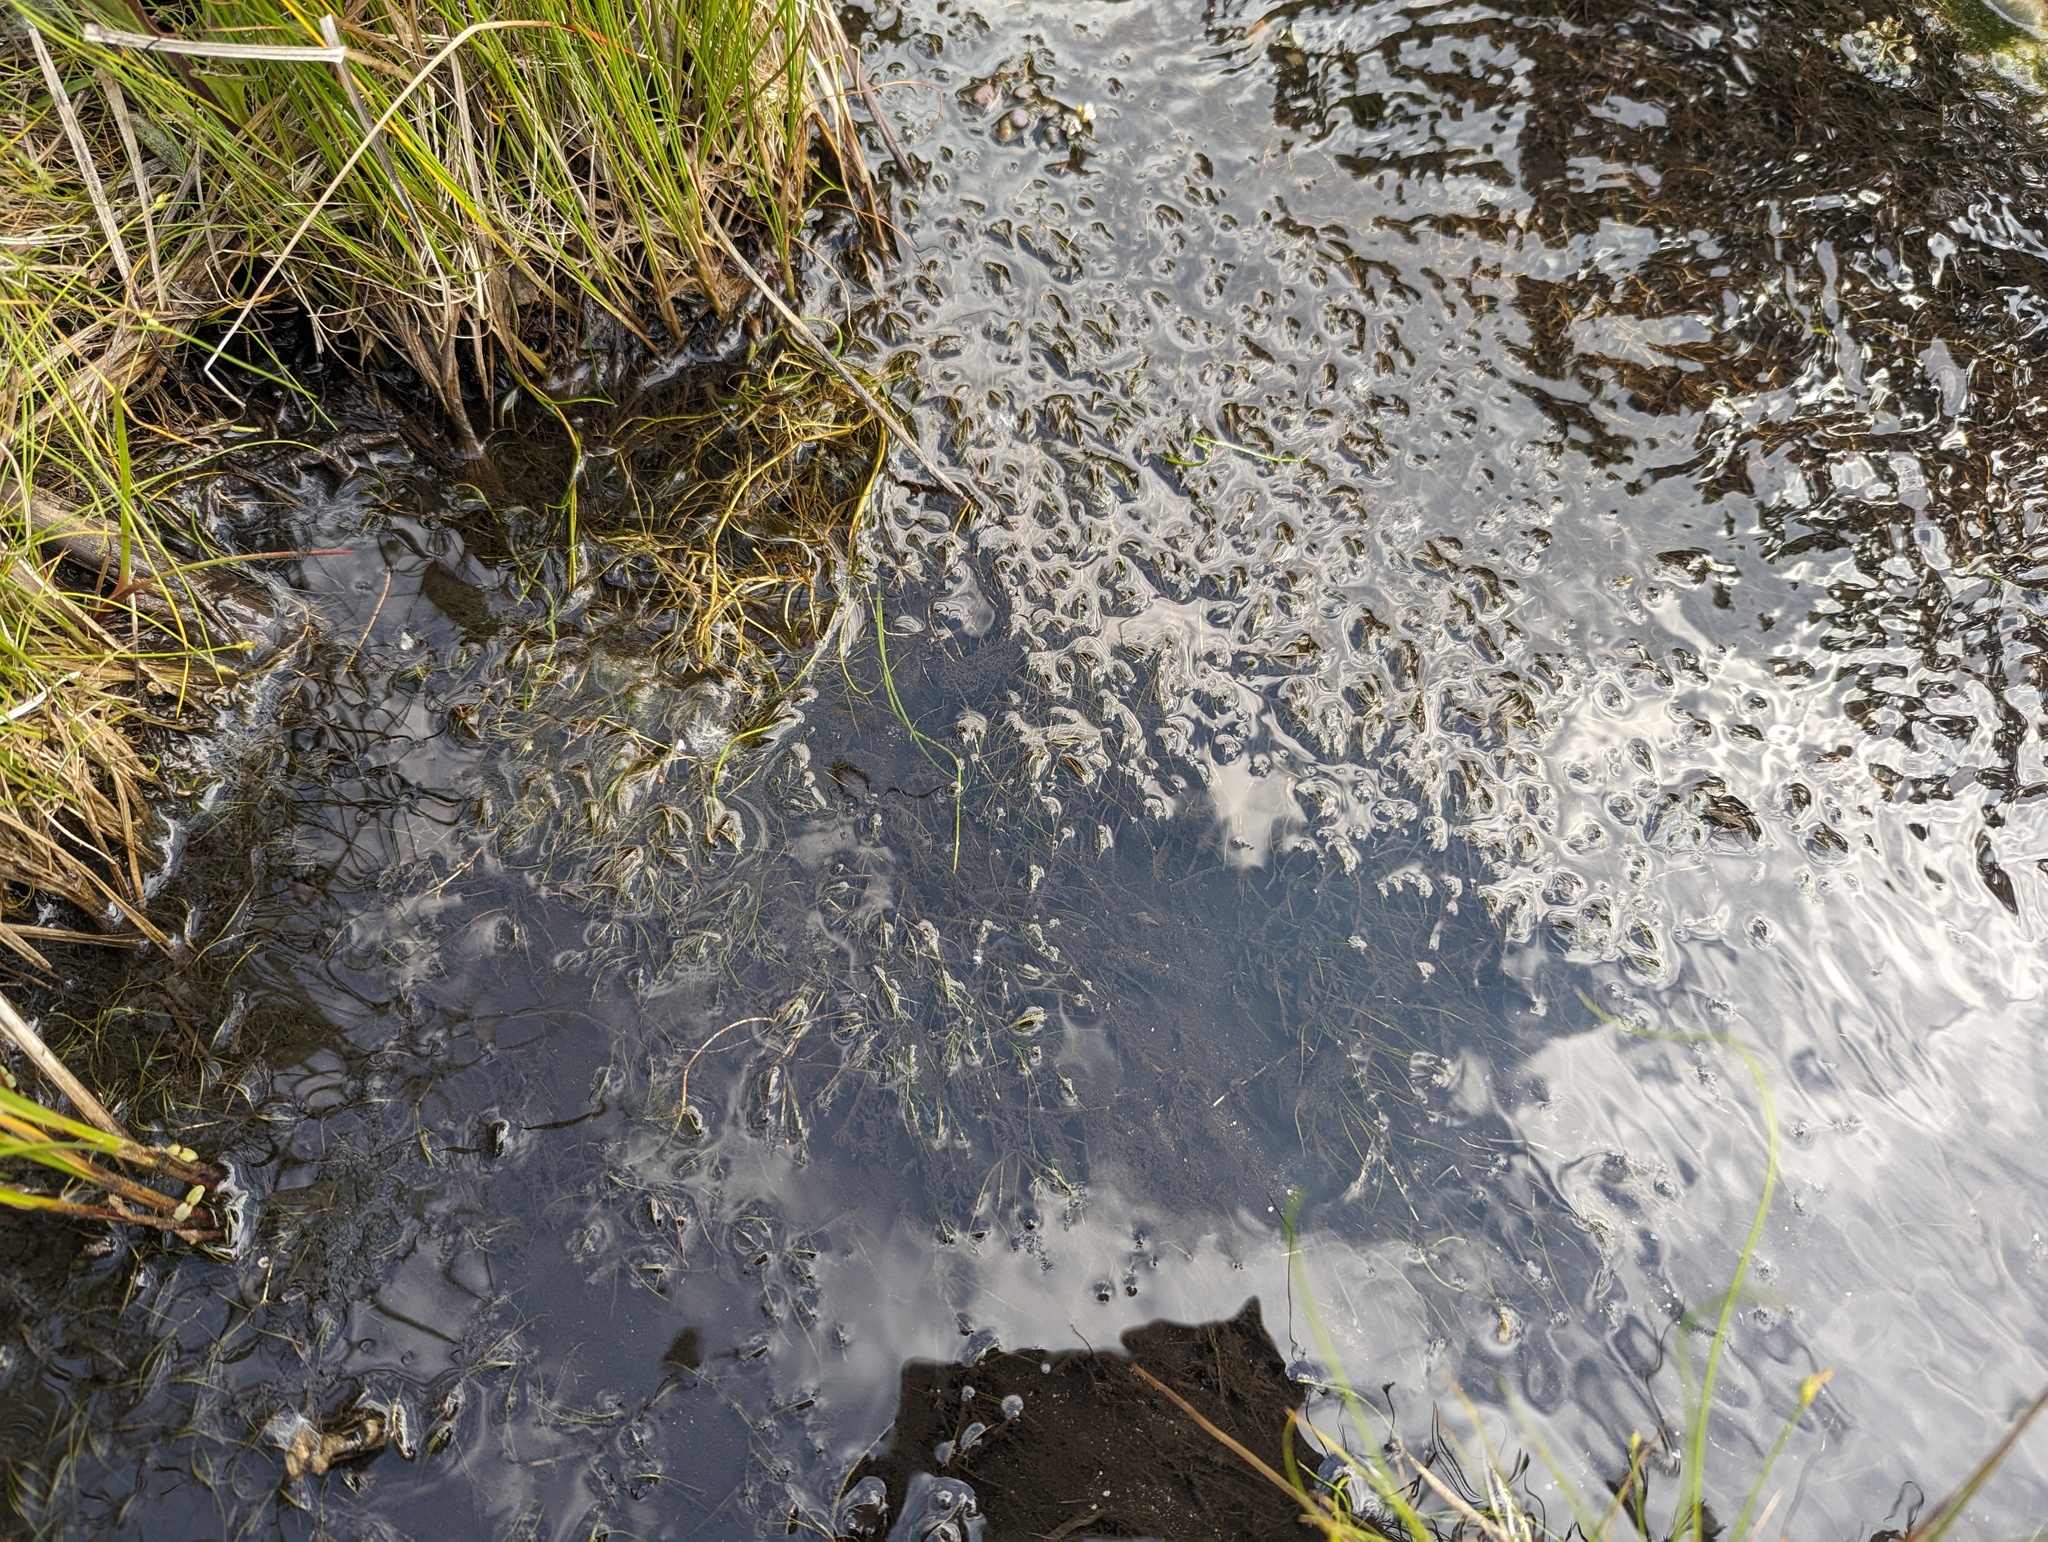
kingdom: Plantae
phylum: Tracheophyta
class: Liliopsida
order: Alismatales
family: Potamogetonaceae
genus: Zannichellia
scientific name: Zannichellia palustris
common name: Horned pondweed
